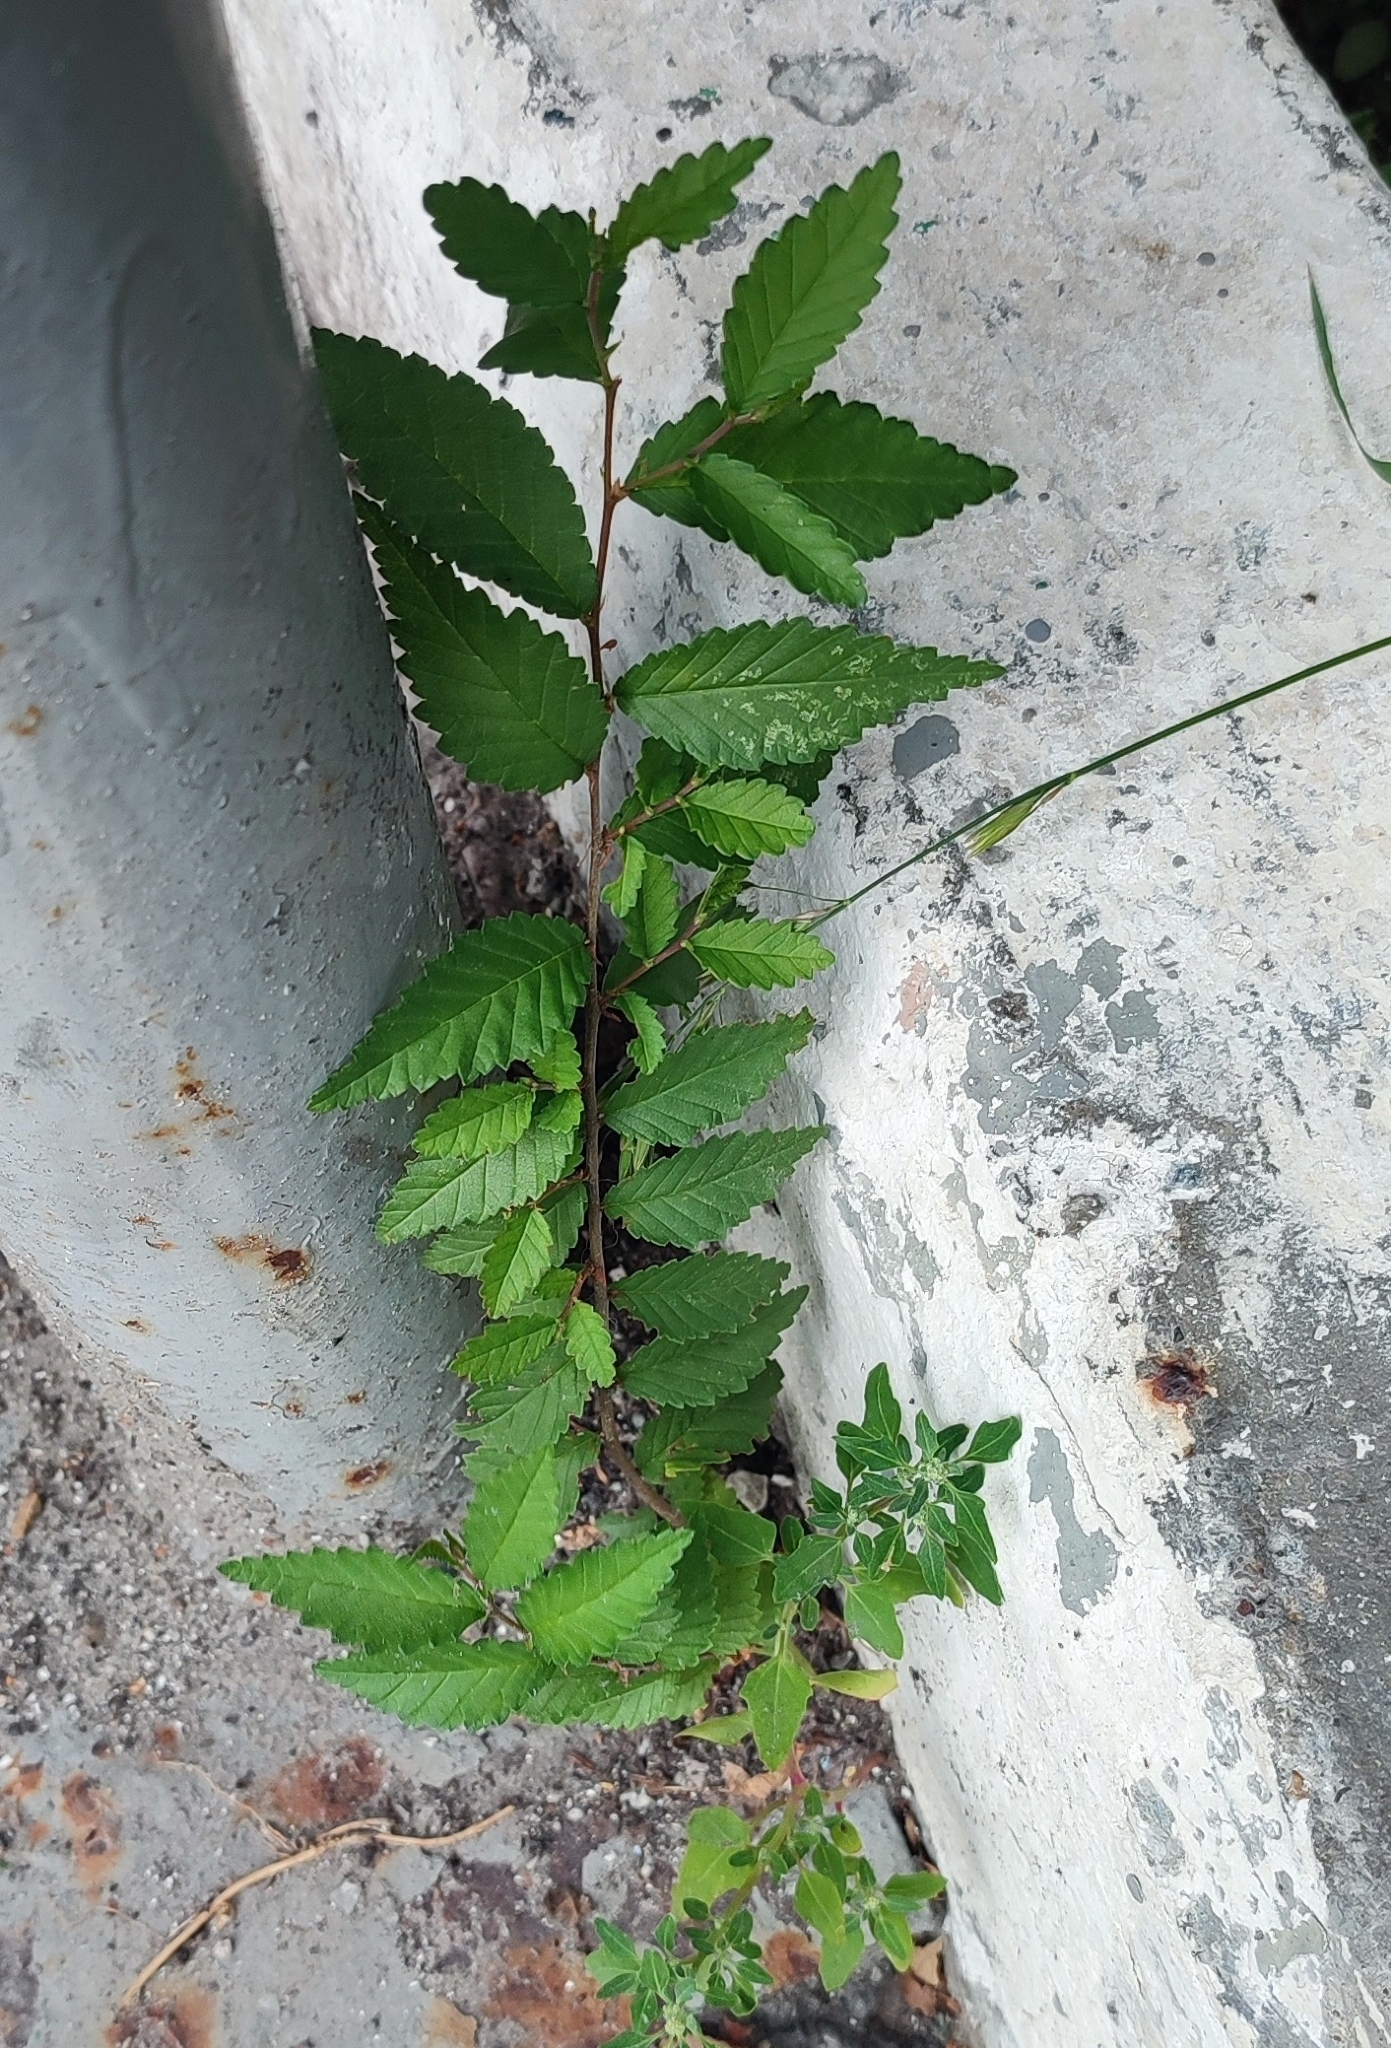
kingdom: Plantae
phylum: Tracheophyta
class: Magnoliopsida
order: Rosales
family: Ulmaceae
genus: Ulmus
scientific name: Ulmus pumila
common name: Siberian elm
